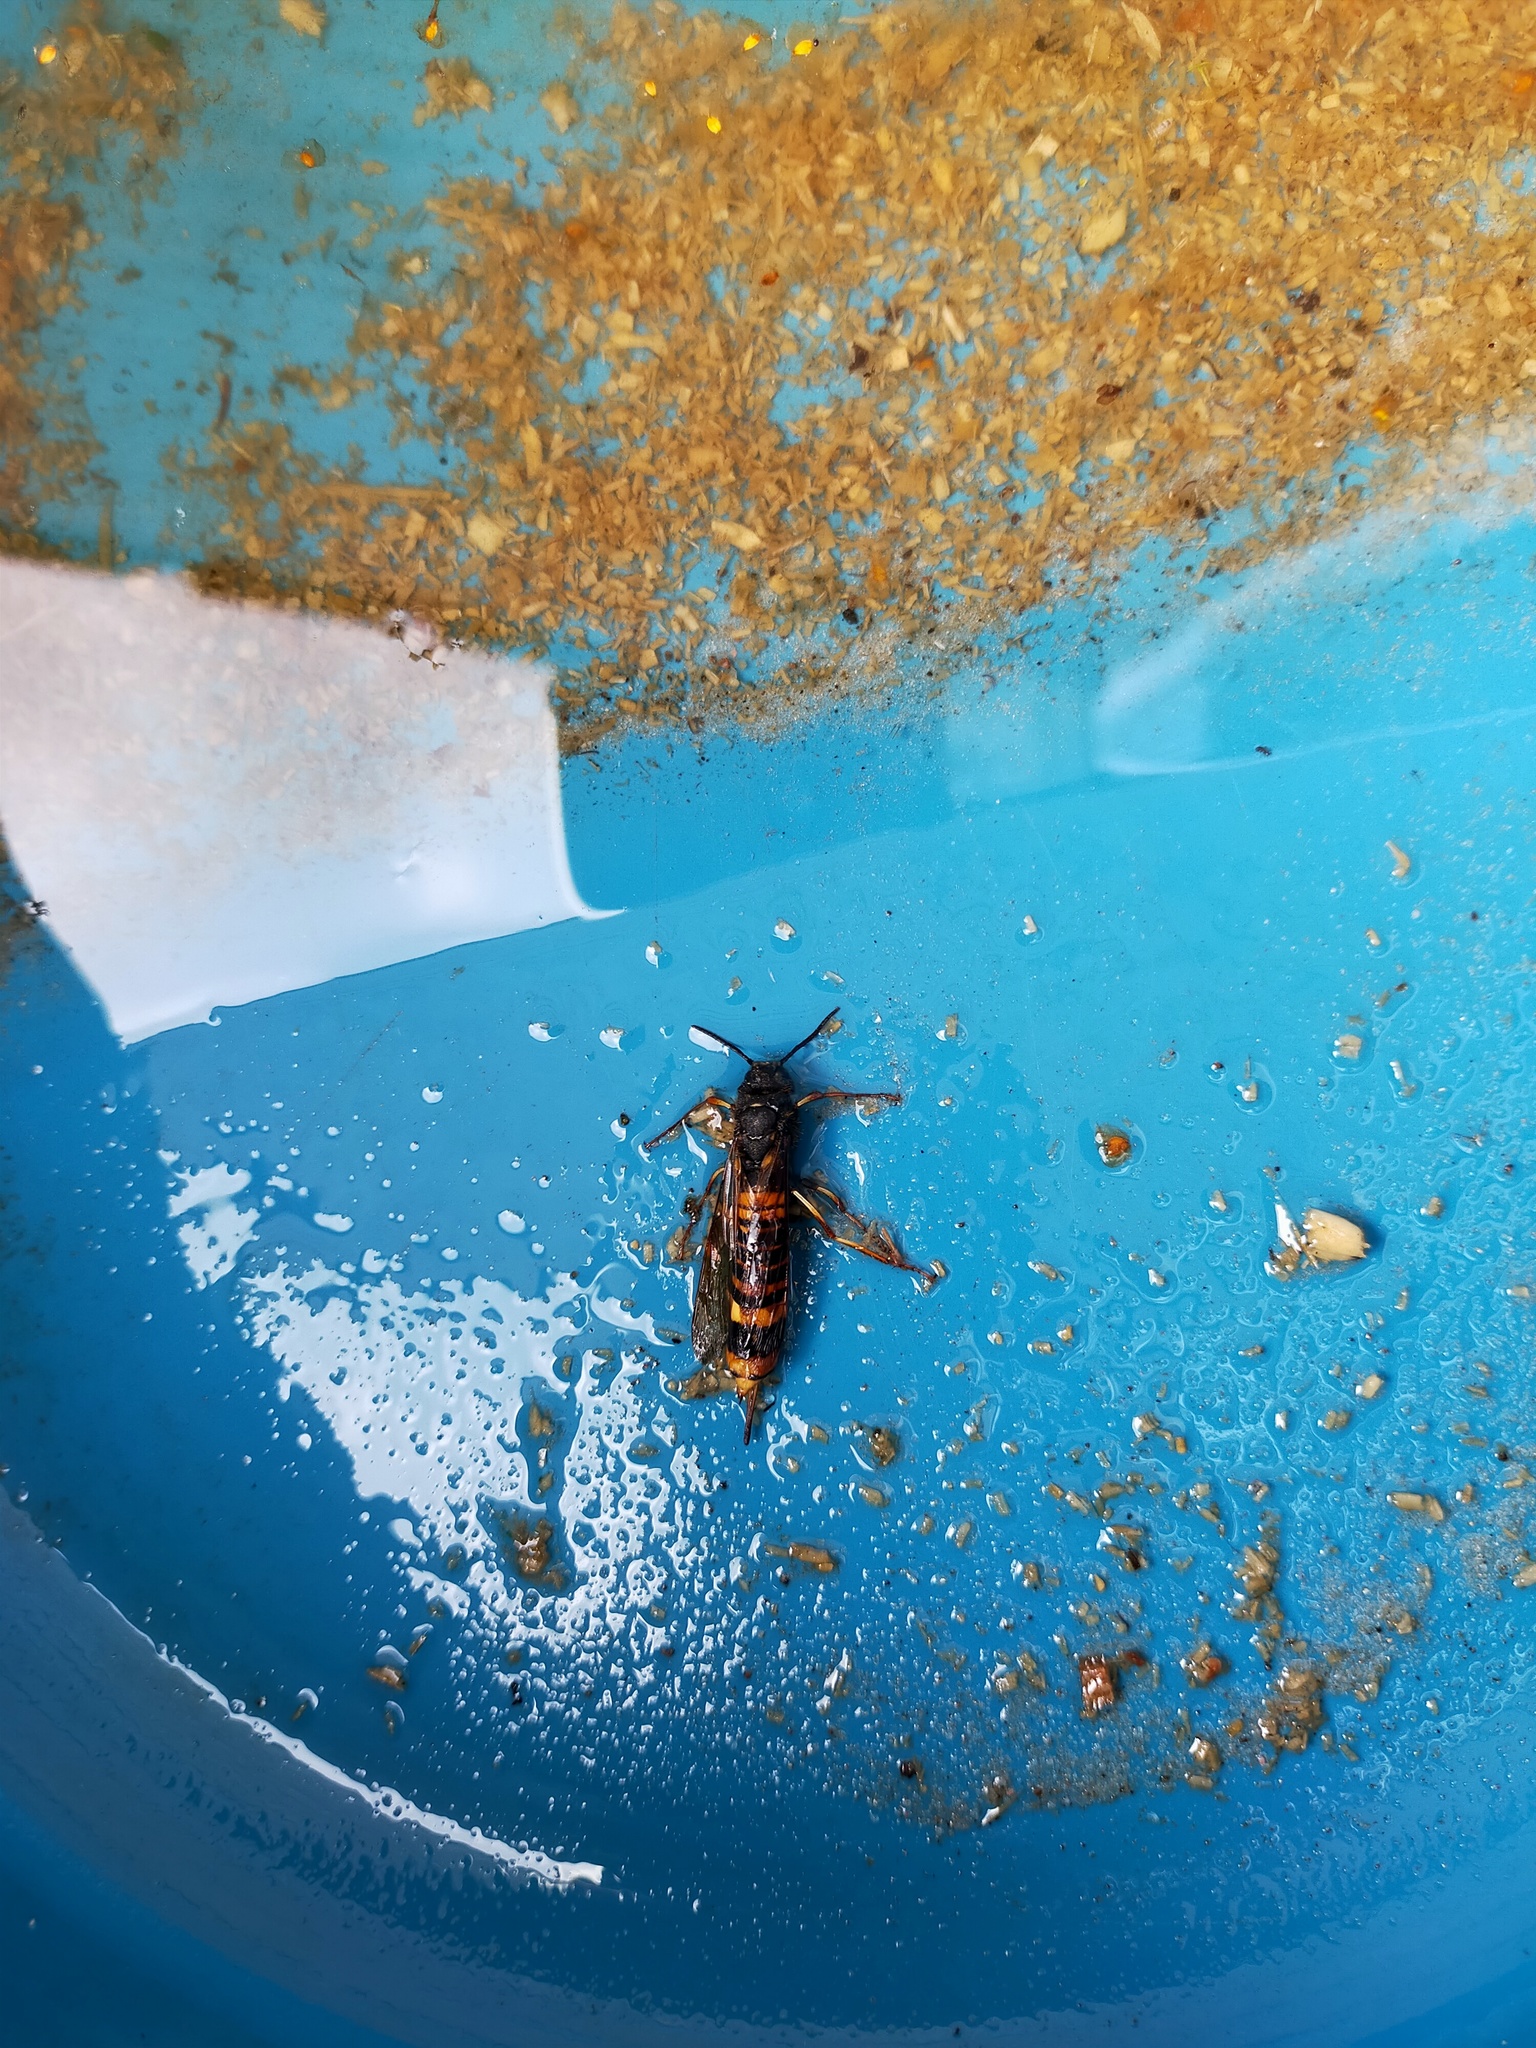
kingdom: Animalia
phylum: Arthropoda
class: Insecta
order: Hymenoptera
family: Siricidae
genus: Tremex
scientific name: Tremex fuscicornis
